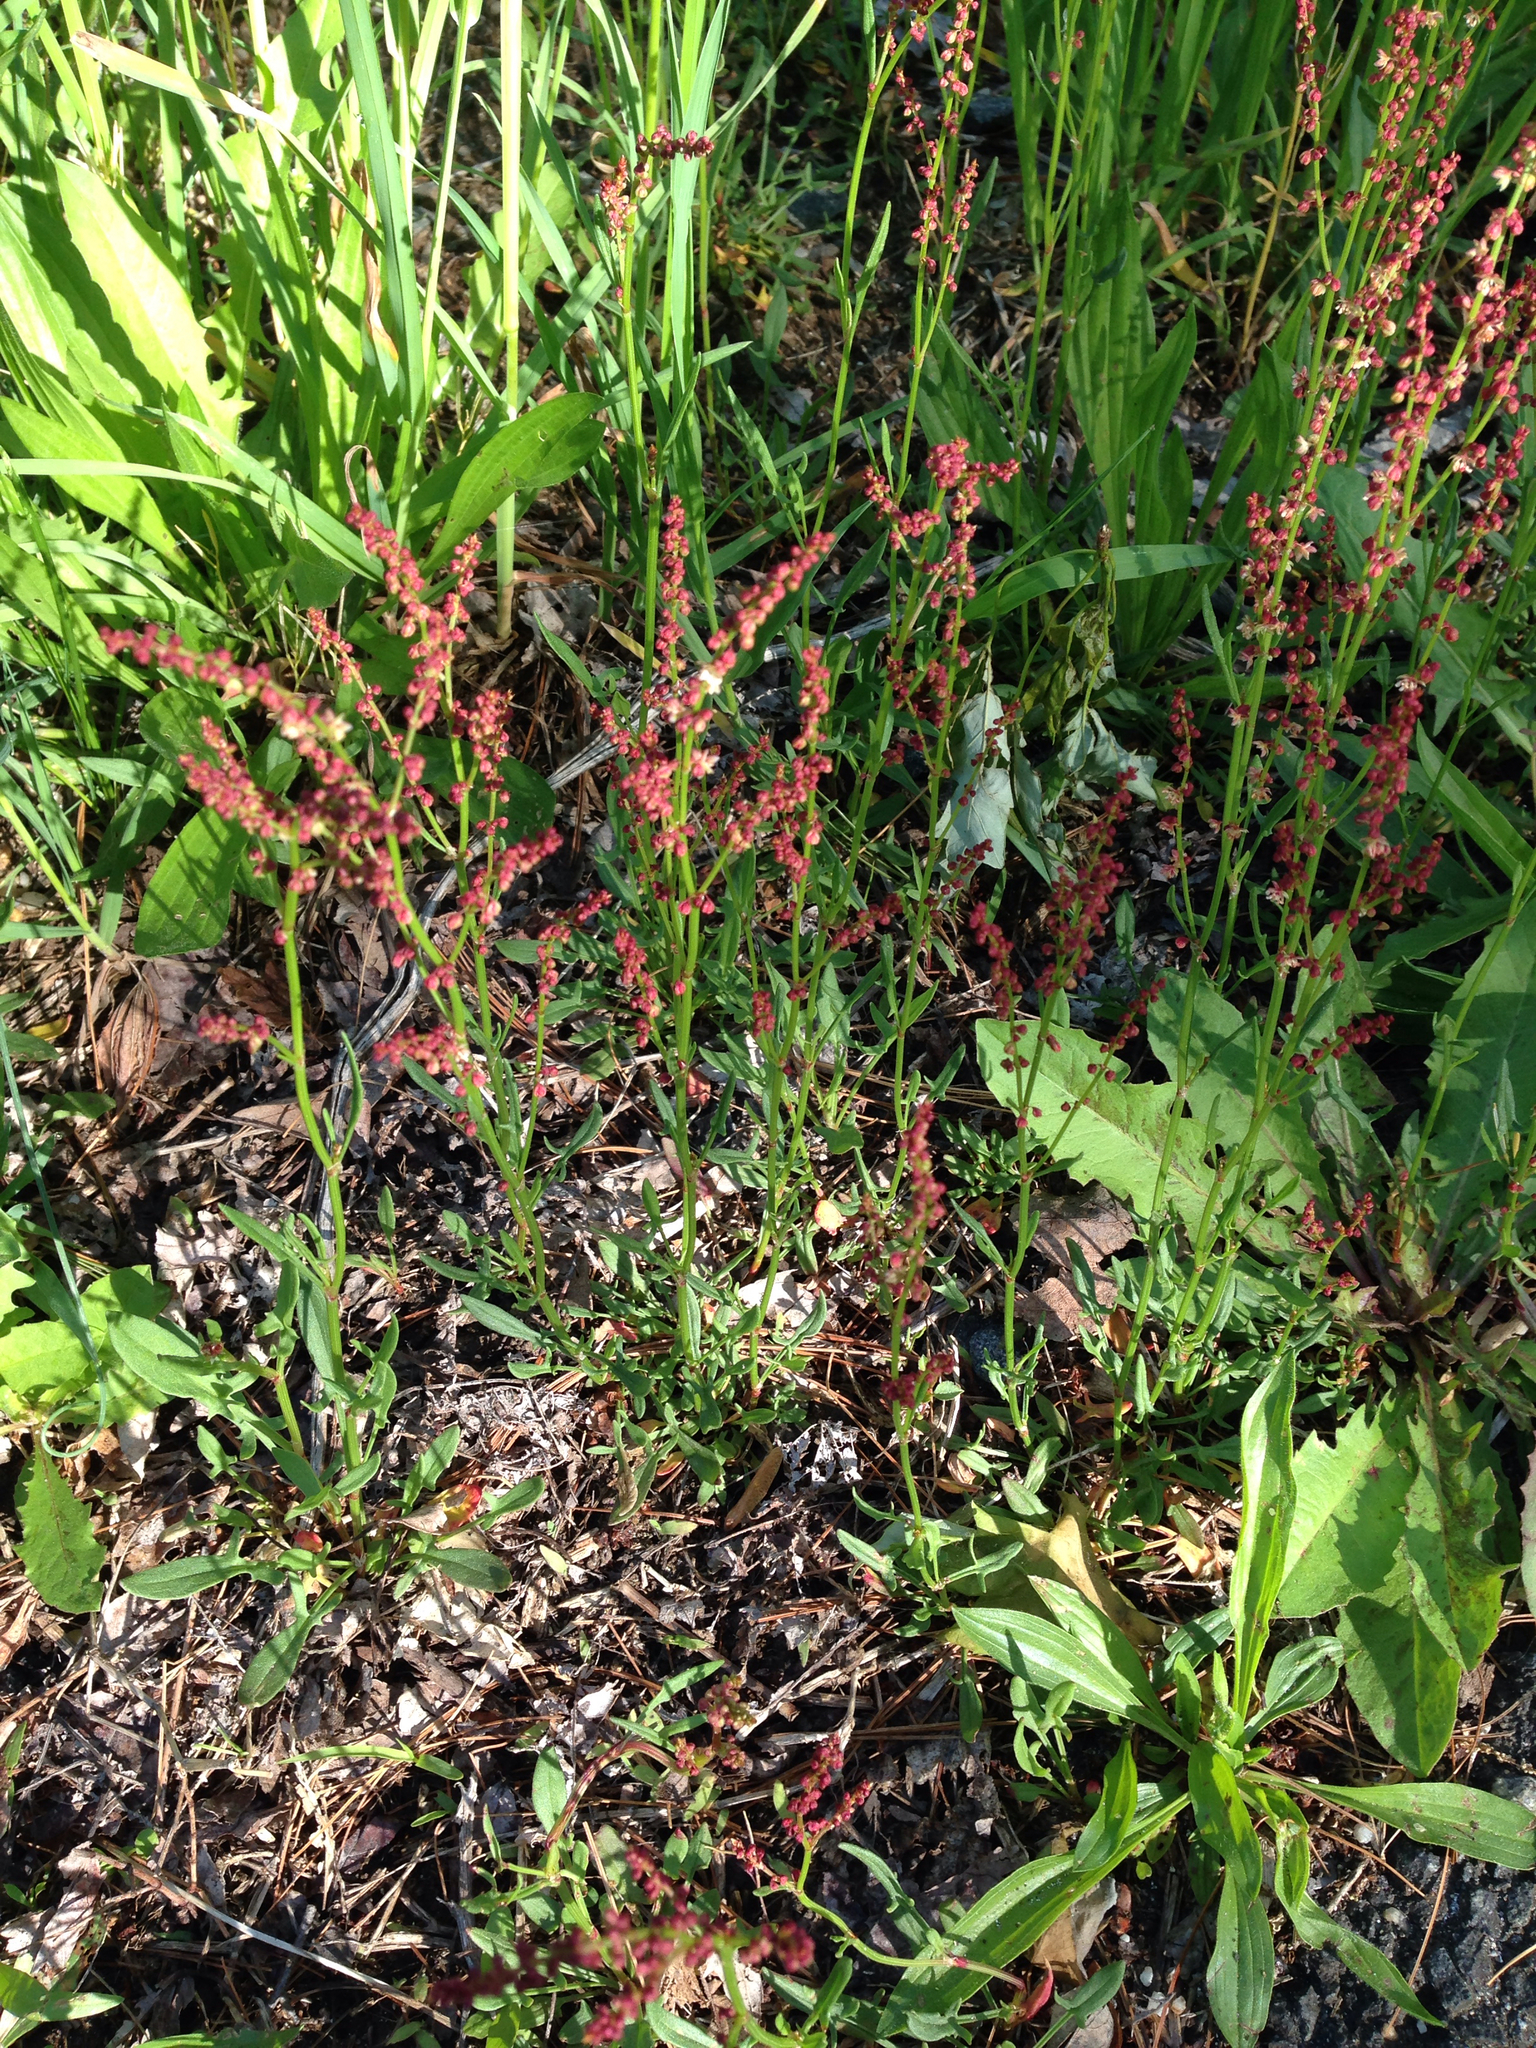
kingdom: Plantae
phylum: Tracheophyta
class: Magnoliopsida
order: Caryophyllales
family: Polygonaceae
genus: Rumex
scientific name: Rumex acetosella
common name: Common sheep sorrel
